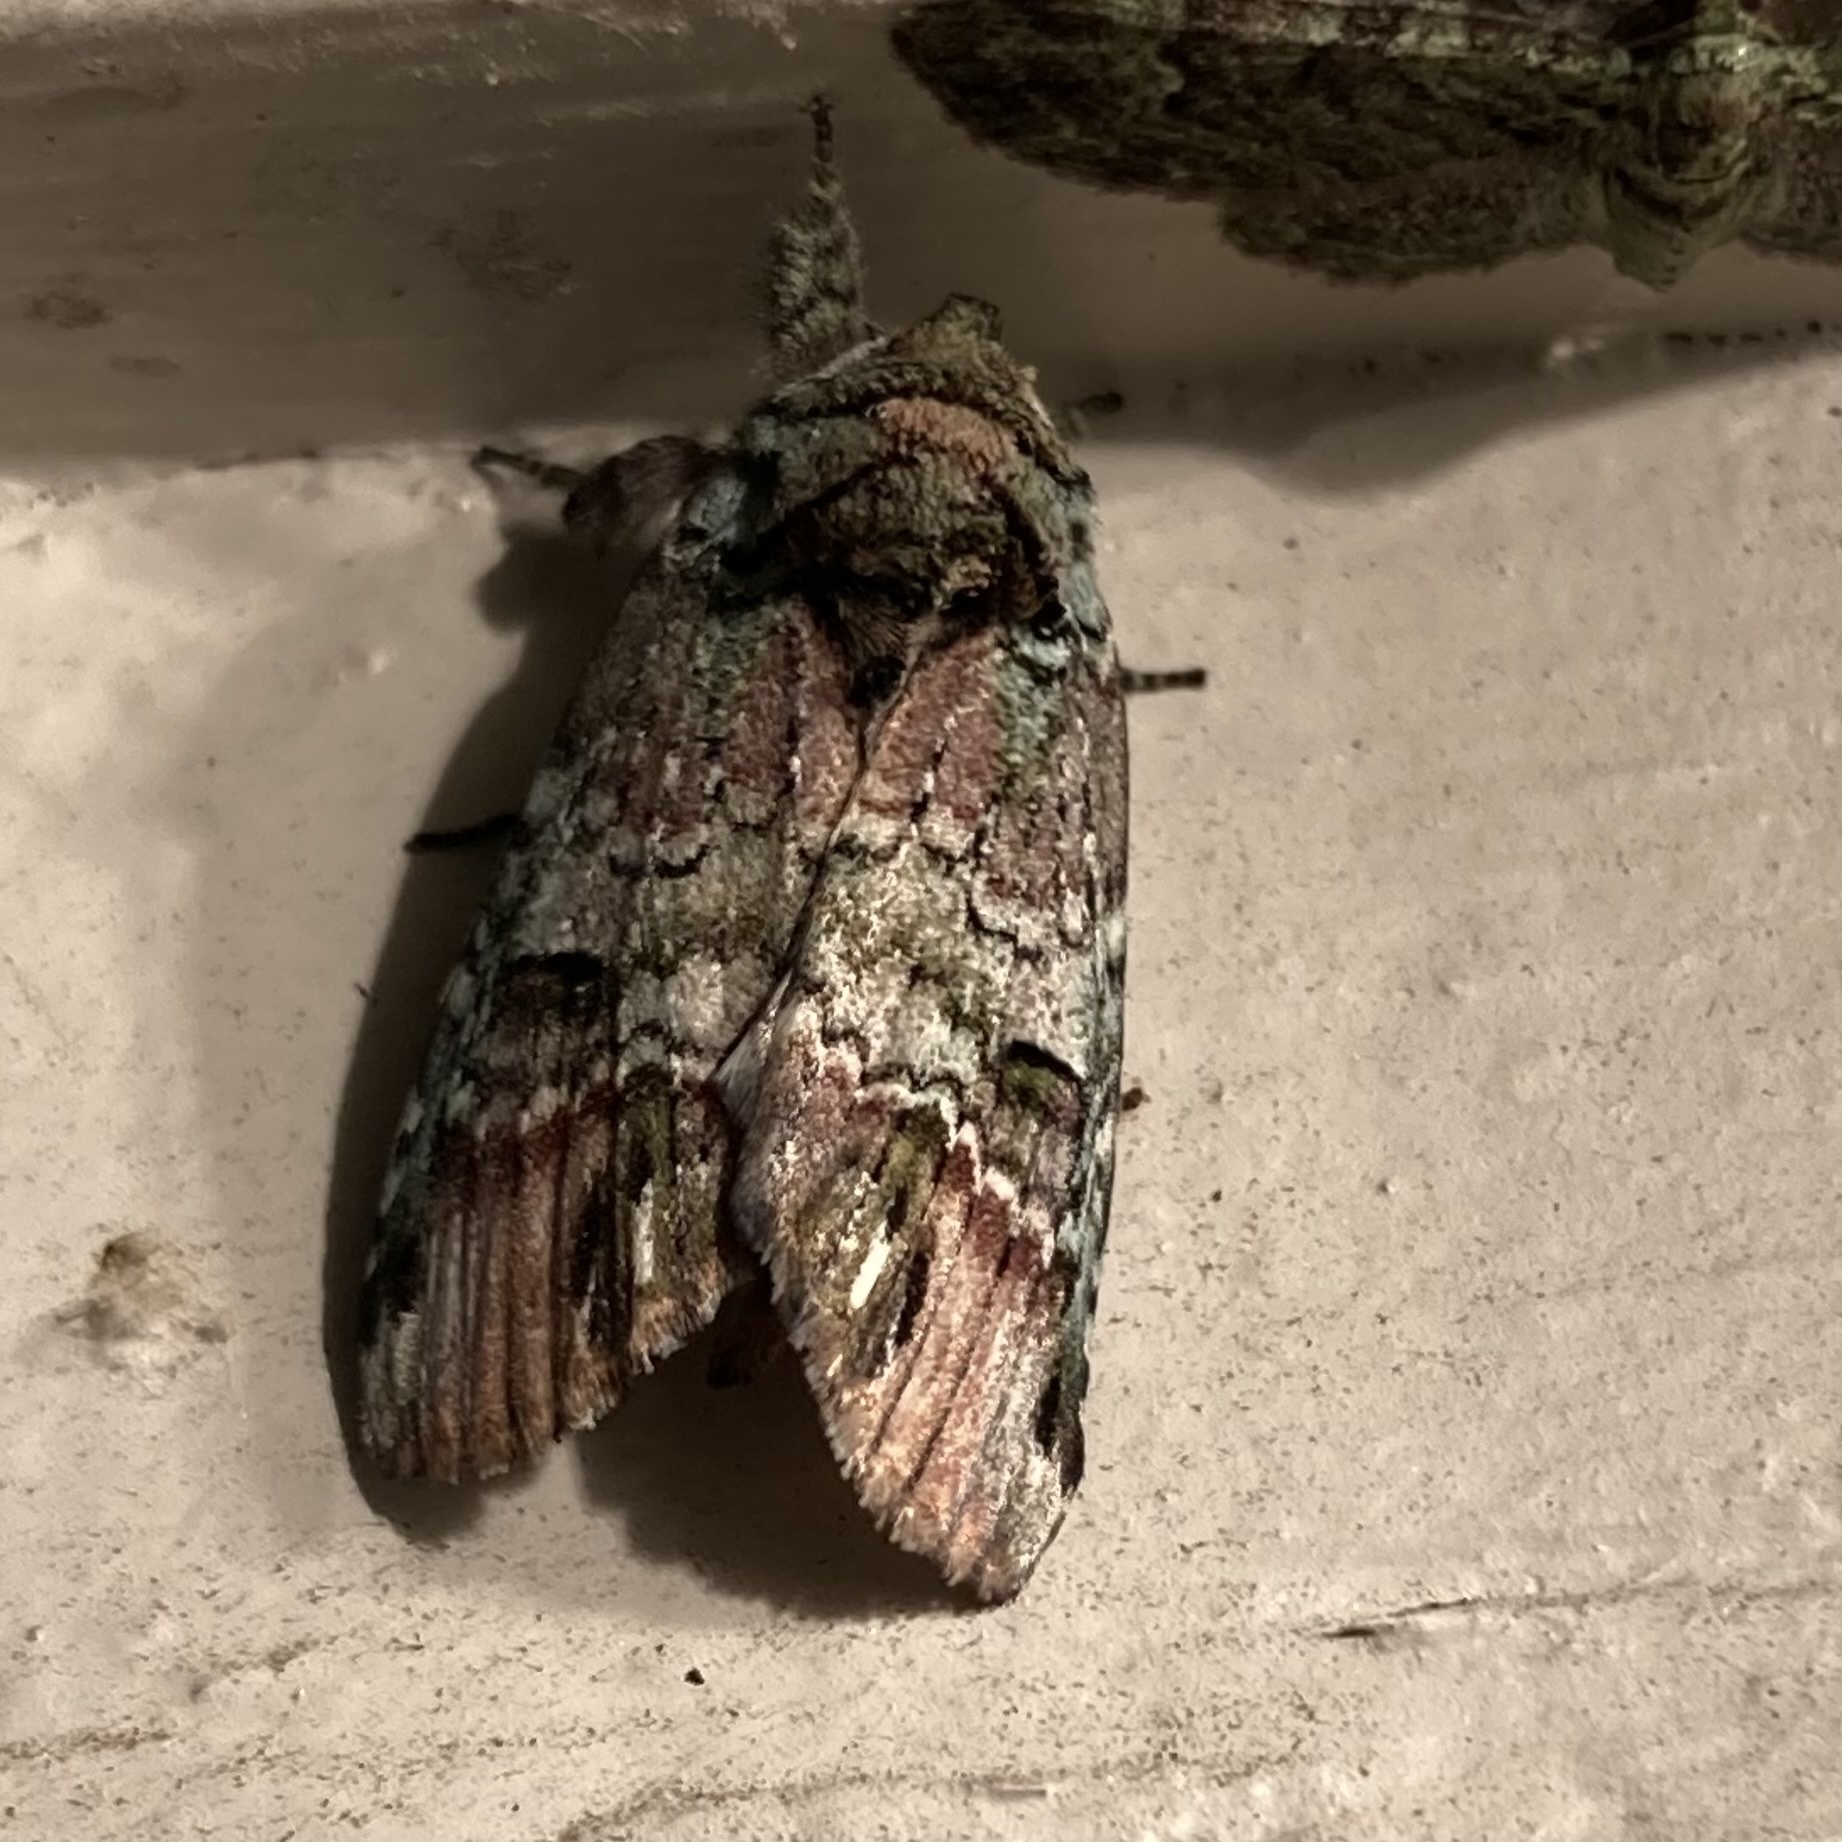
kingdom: Animalia
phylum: Arthropoda
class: Insecta
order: Lepidoptera
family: Notodontidae
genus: Schizura
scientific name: Schizura
